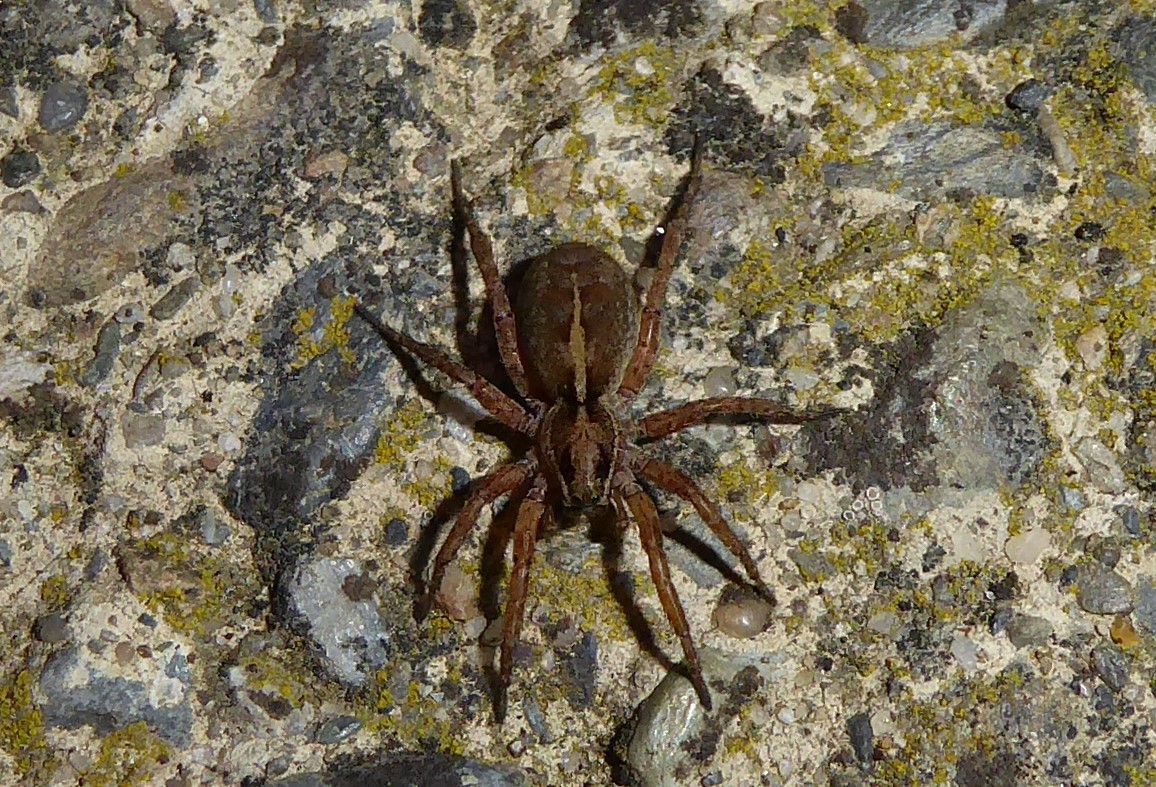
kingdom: Animalia
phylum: Arthropoda
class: Arachnida
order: Araneae
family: Lycosidae
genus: Anoteropsis
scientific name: Anoteropsis hilaris
